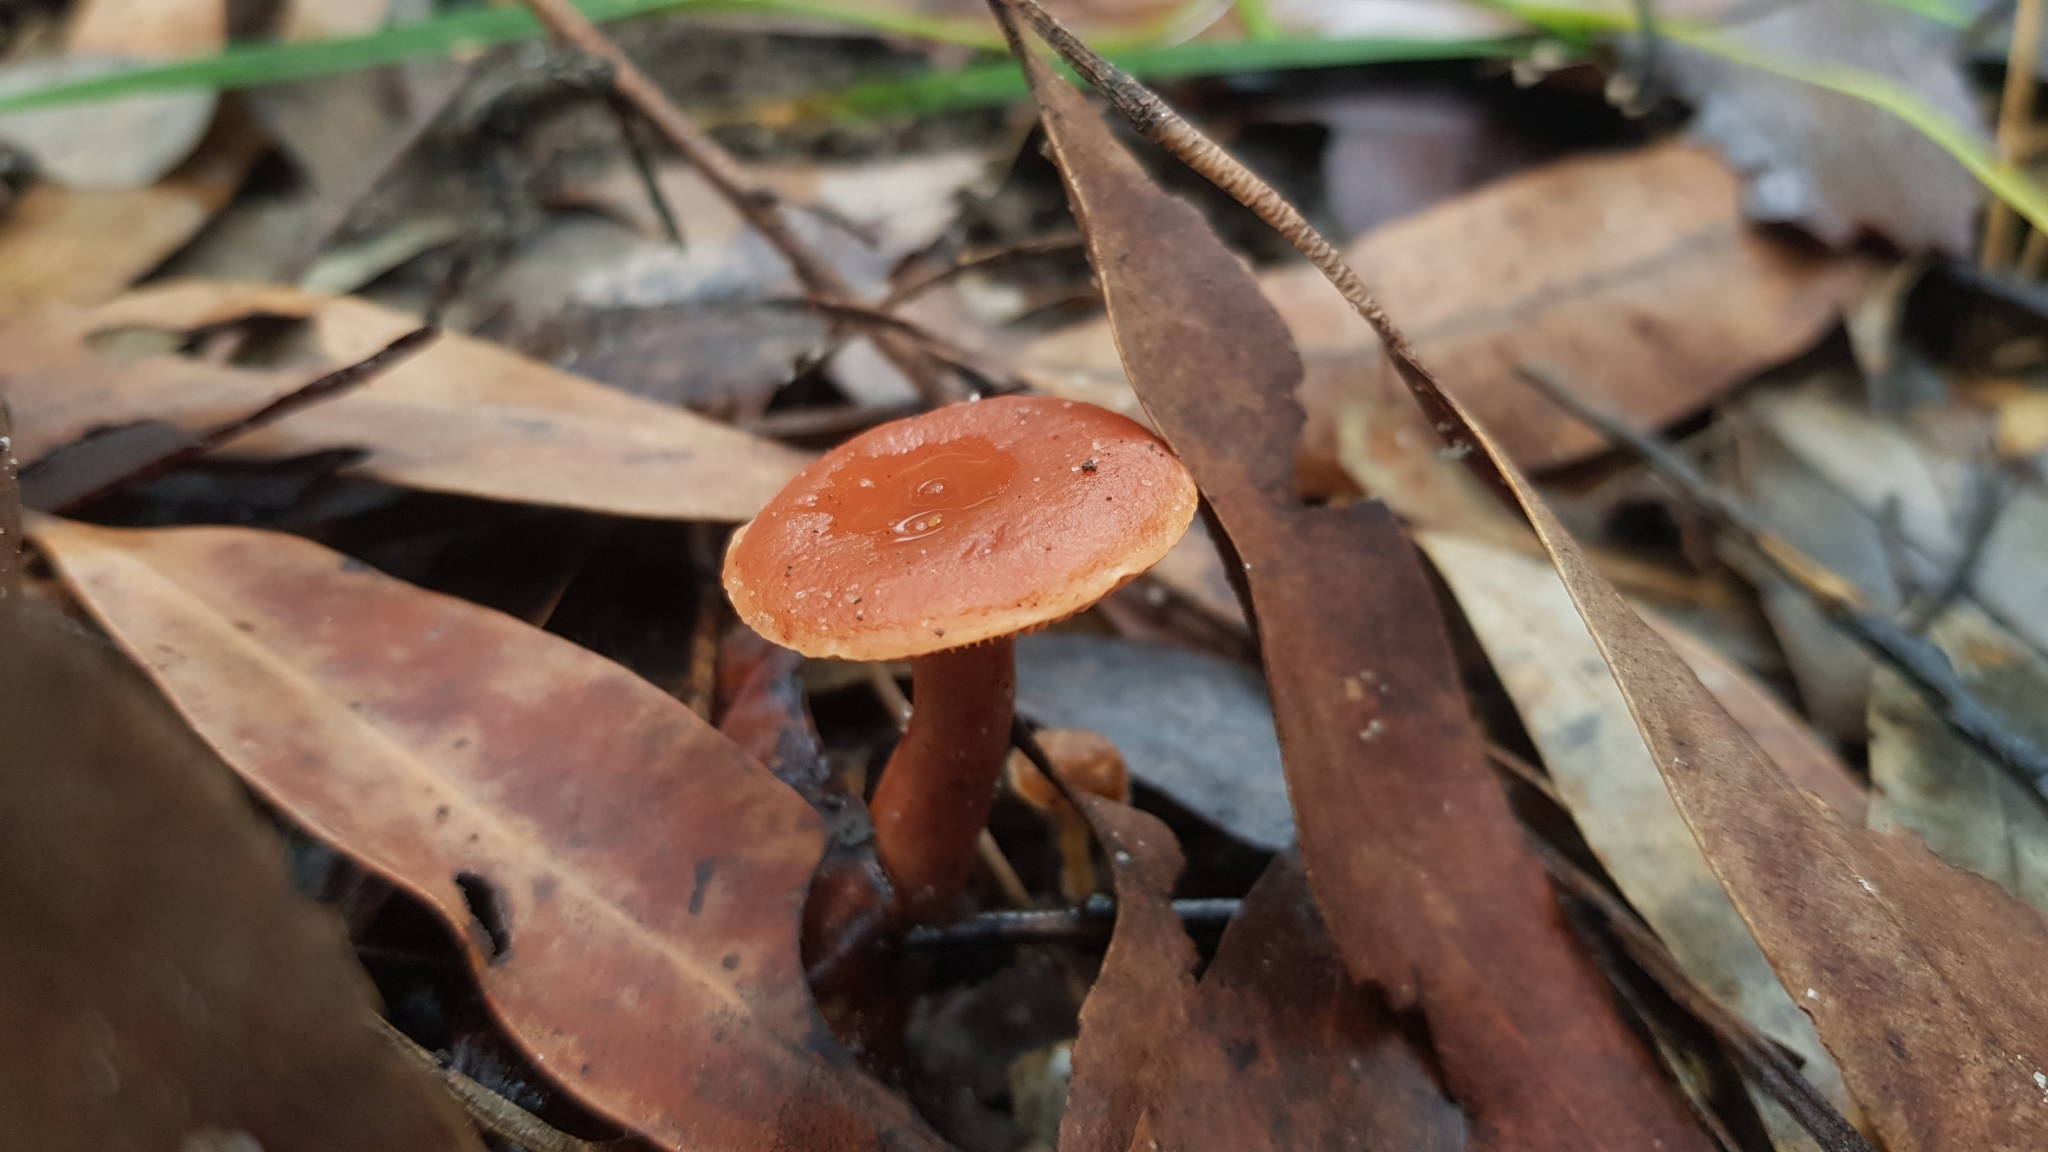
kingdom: Fungi
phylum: Basidiomycota
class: Agaricomycetes
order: Russulales
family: Russulaceae
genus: Lactarius
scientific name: Lactarius eucalypti
